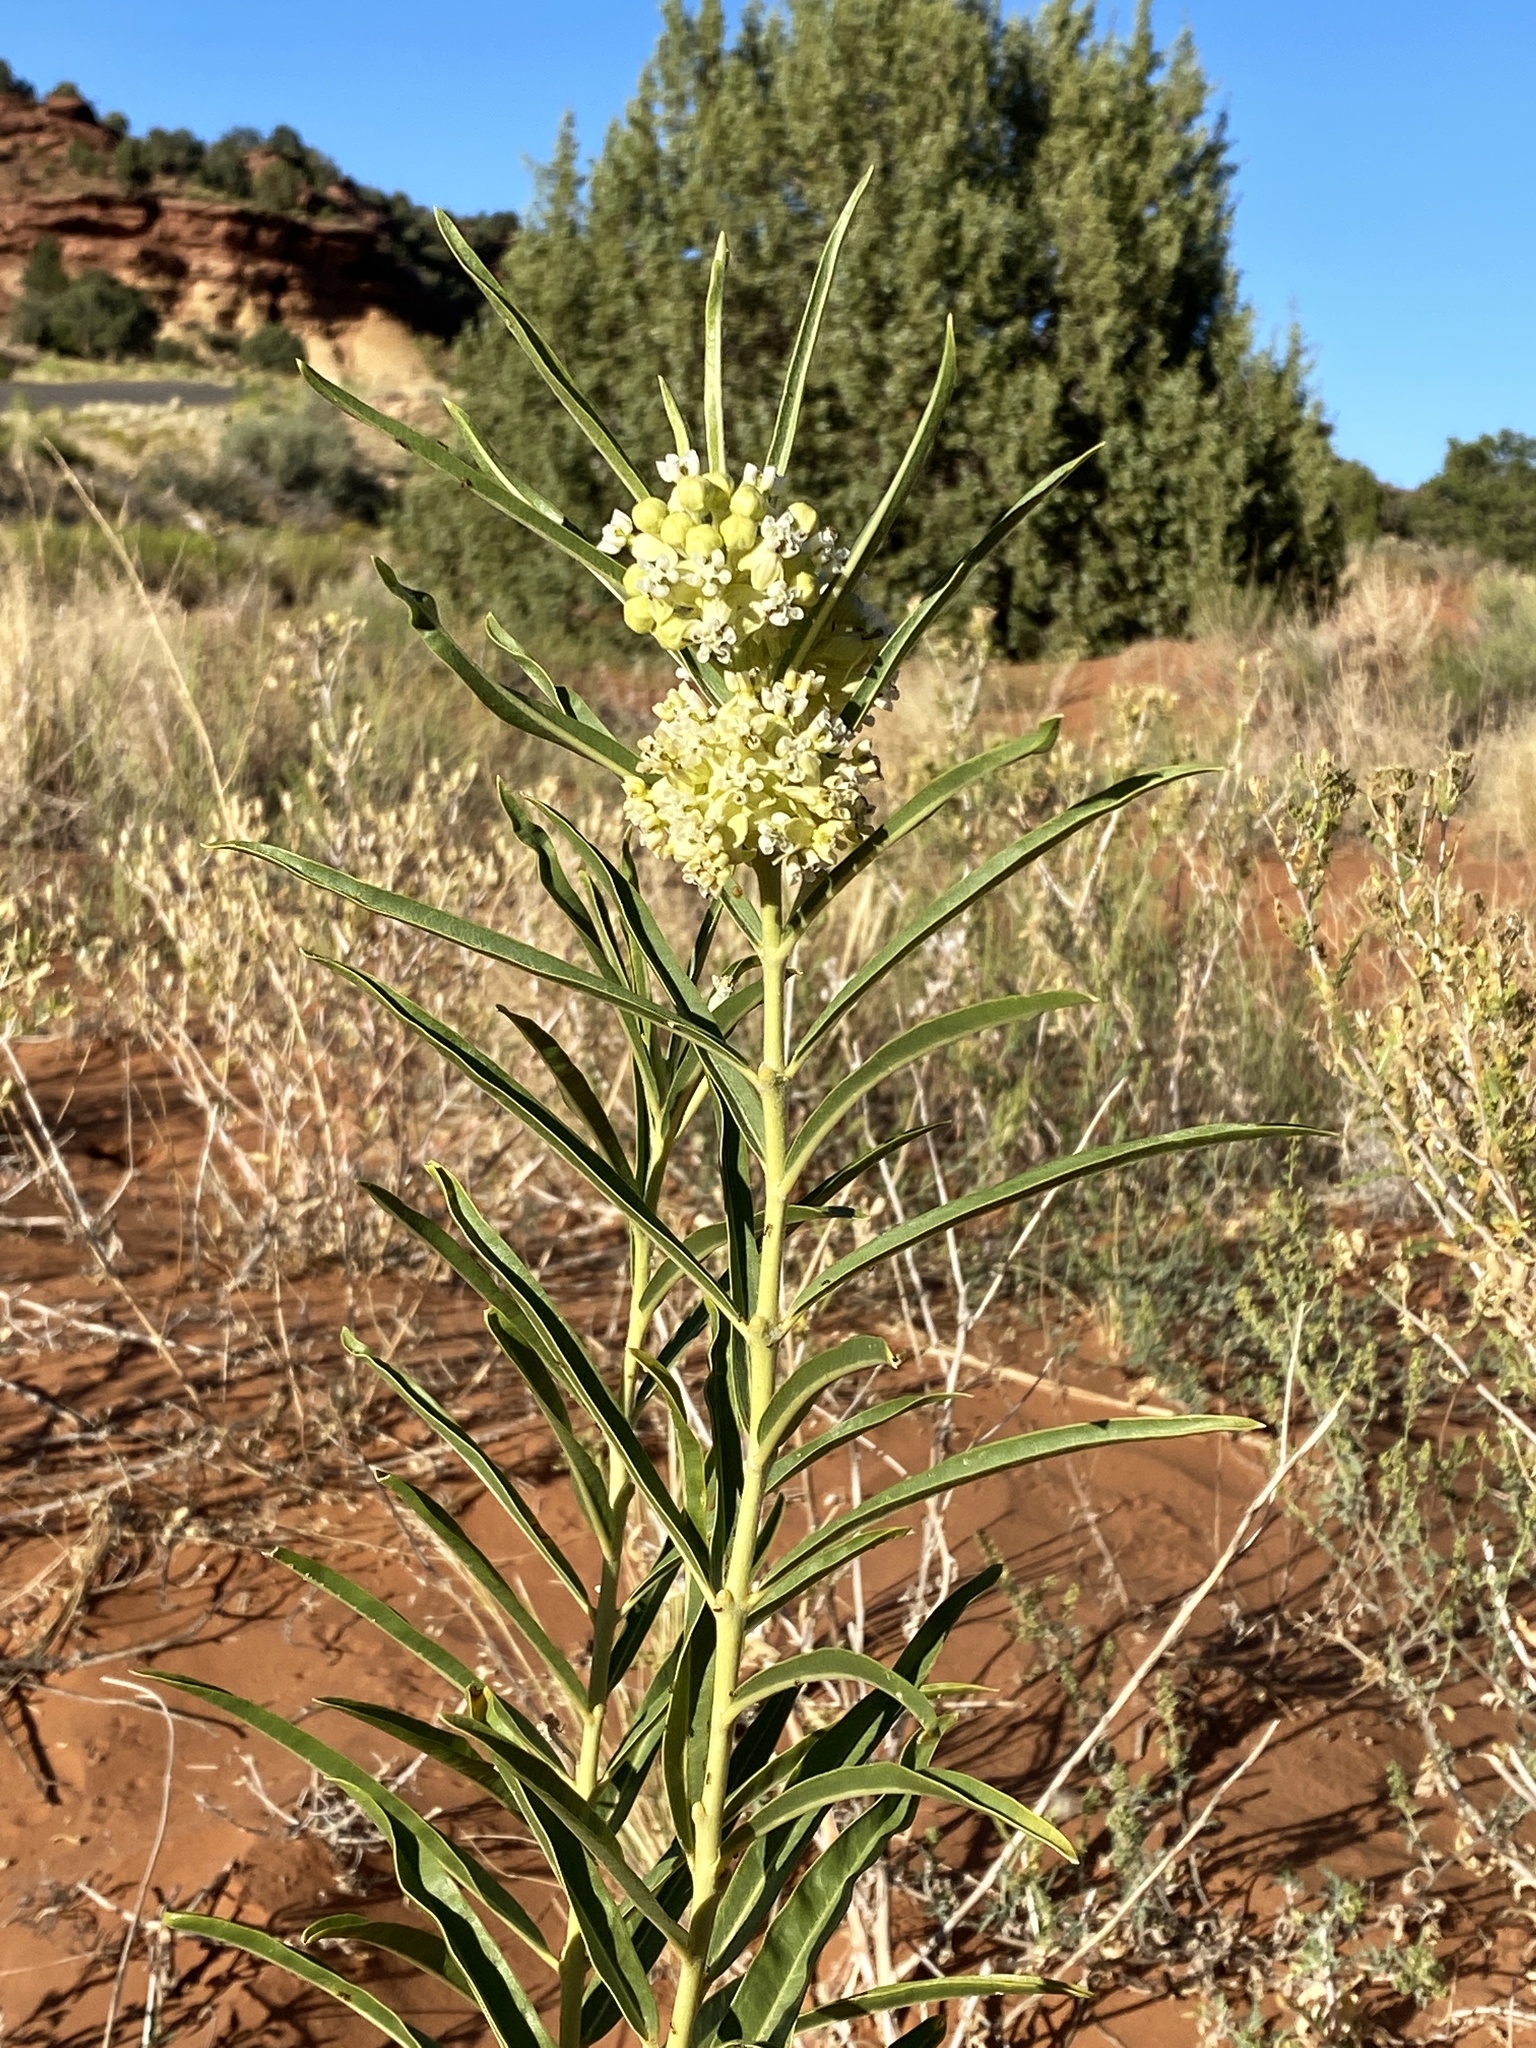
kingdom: Plantae
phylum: Tracheophyta
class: Magnoliopsida
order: Gentianales
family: Apocynaceae
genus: Asclepias
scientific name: Asclepias labriformis
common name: Labriformis milkweed
